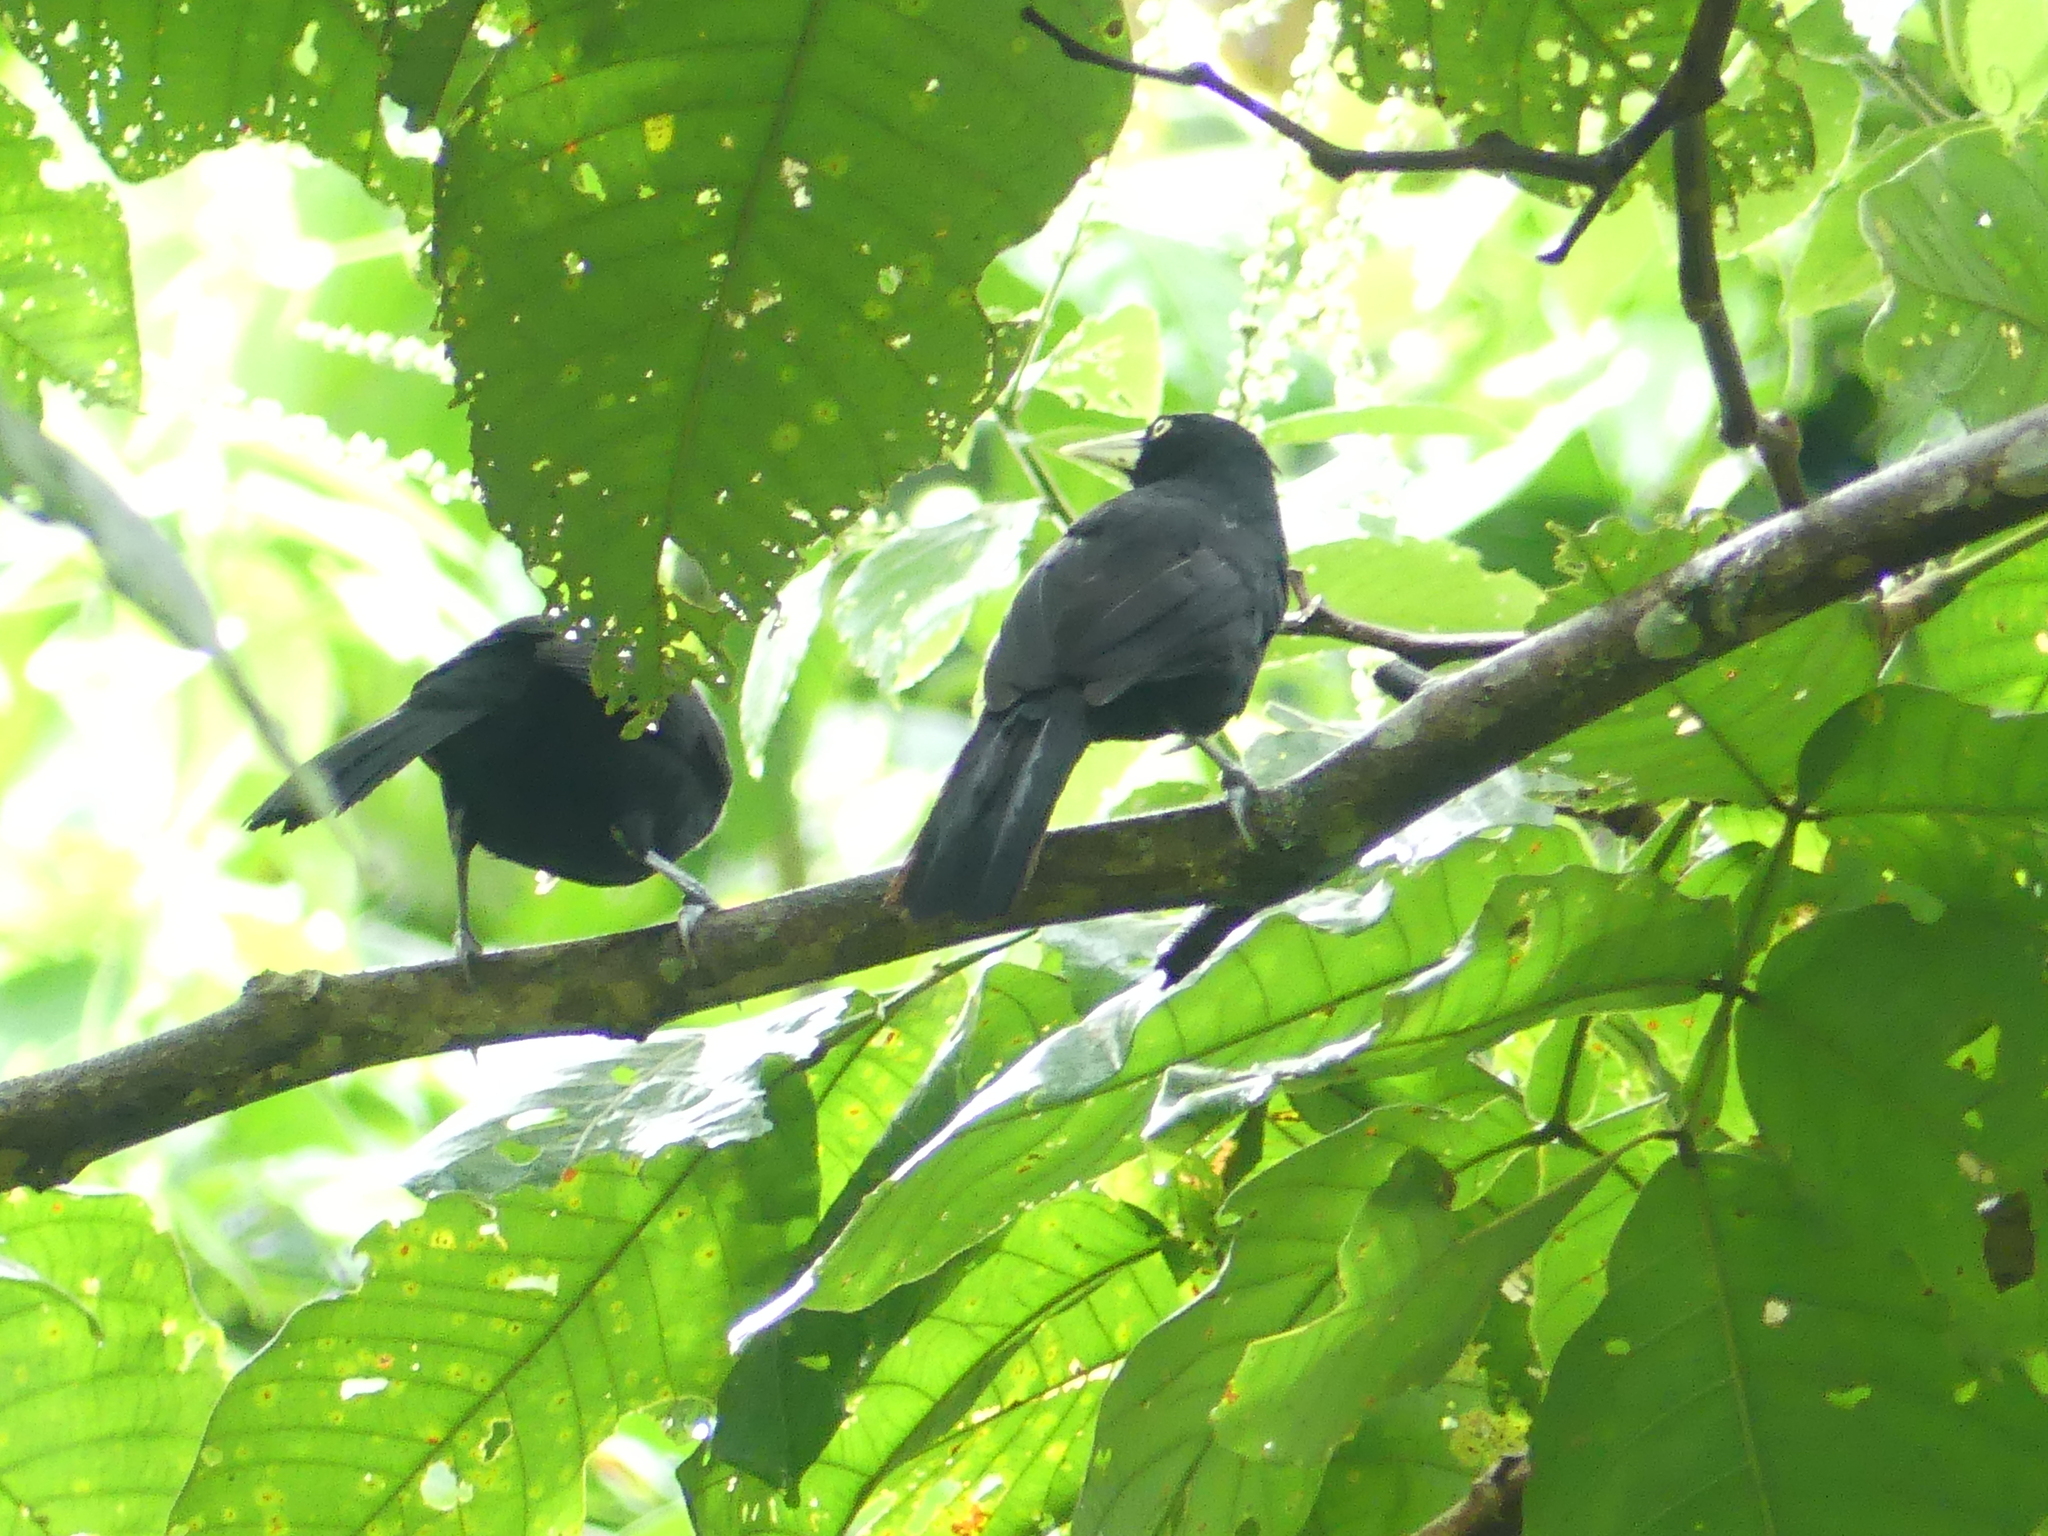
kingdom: Animalia
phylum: Chordata
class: Aves
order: Passeriformes
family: Icteridae
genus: Amblycercus
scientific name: Amblycercus holosericeus
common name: Yellow-billed cacique
